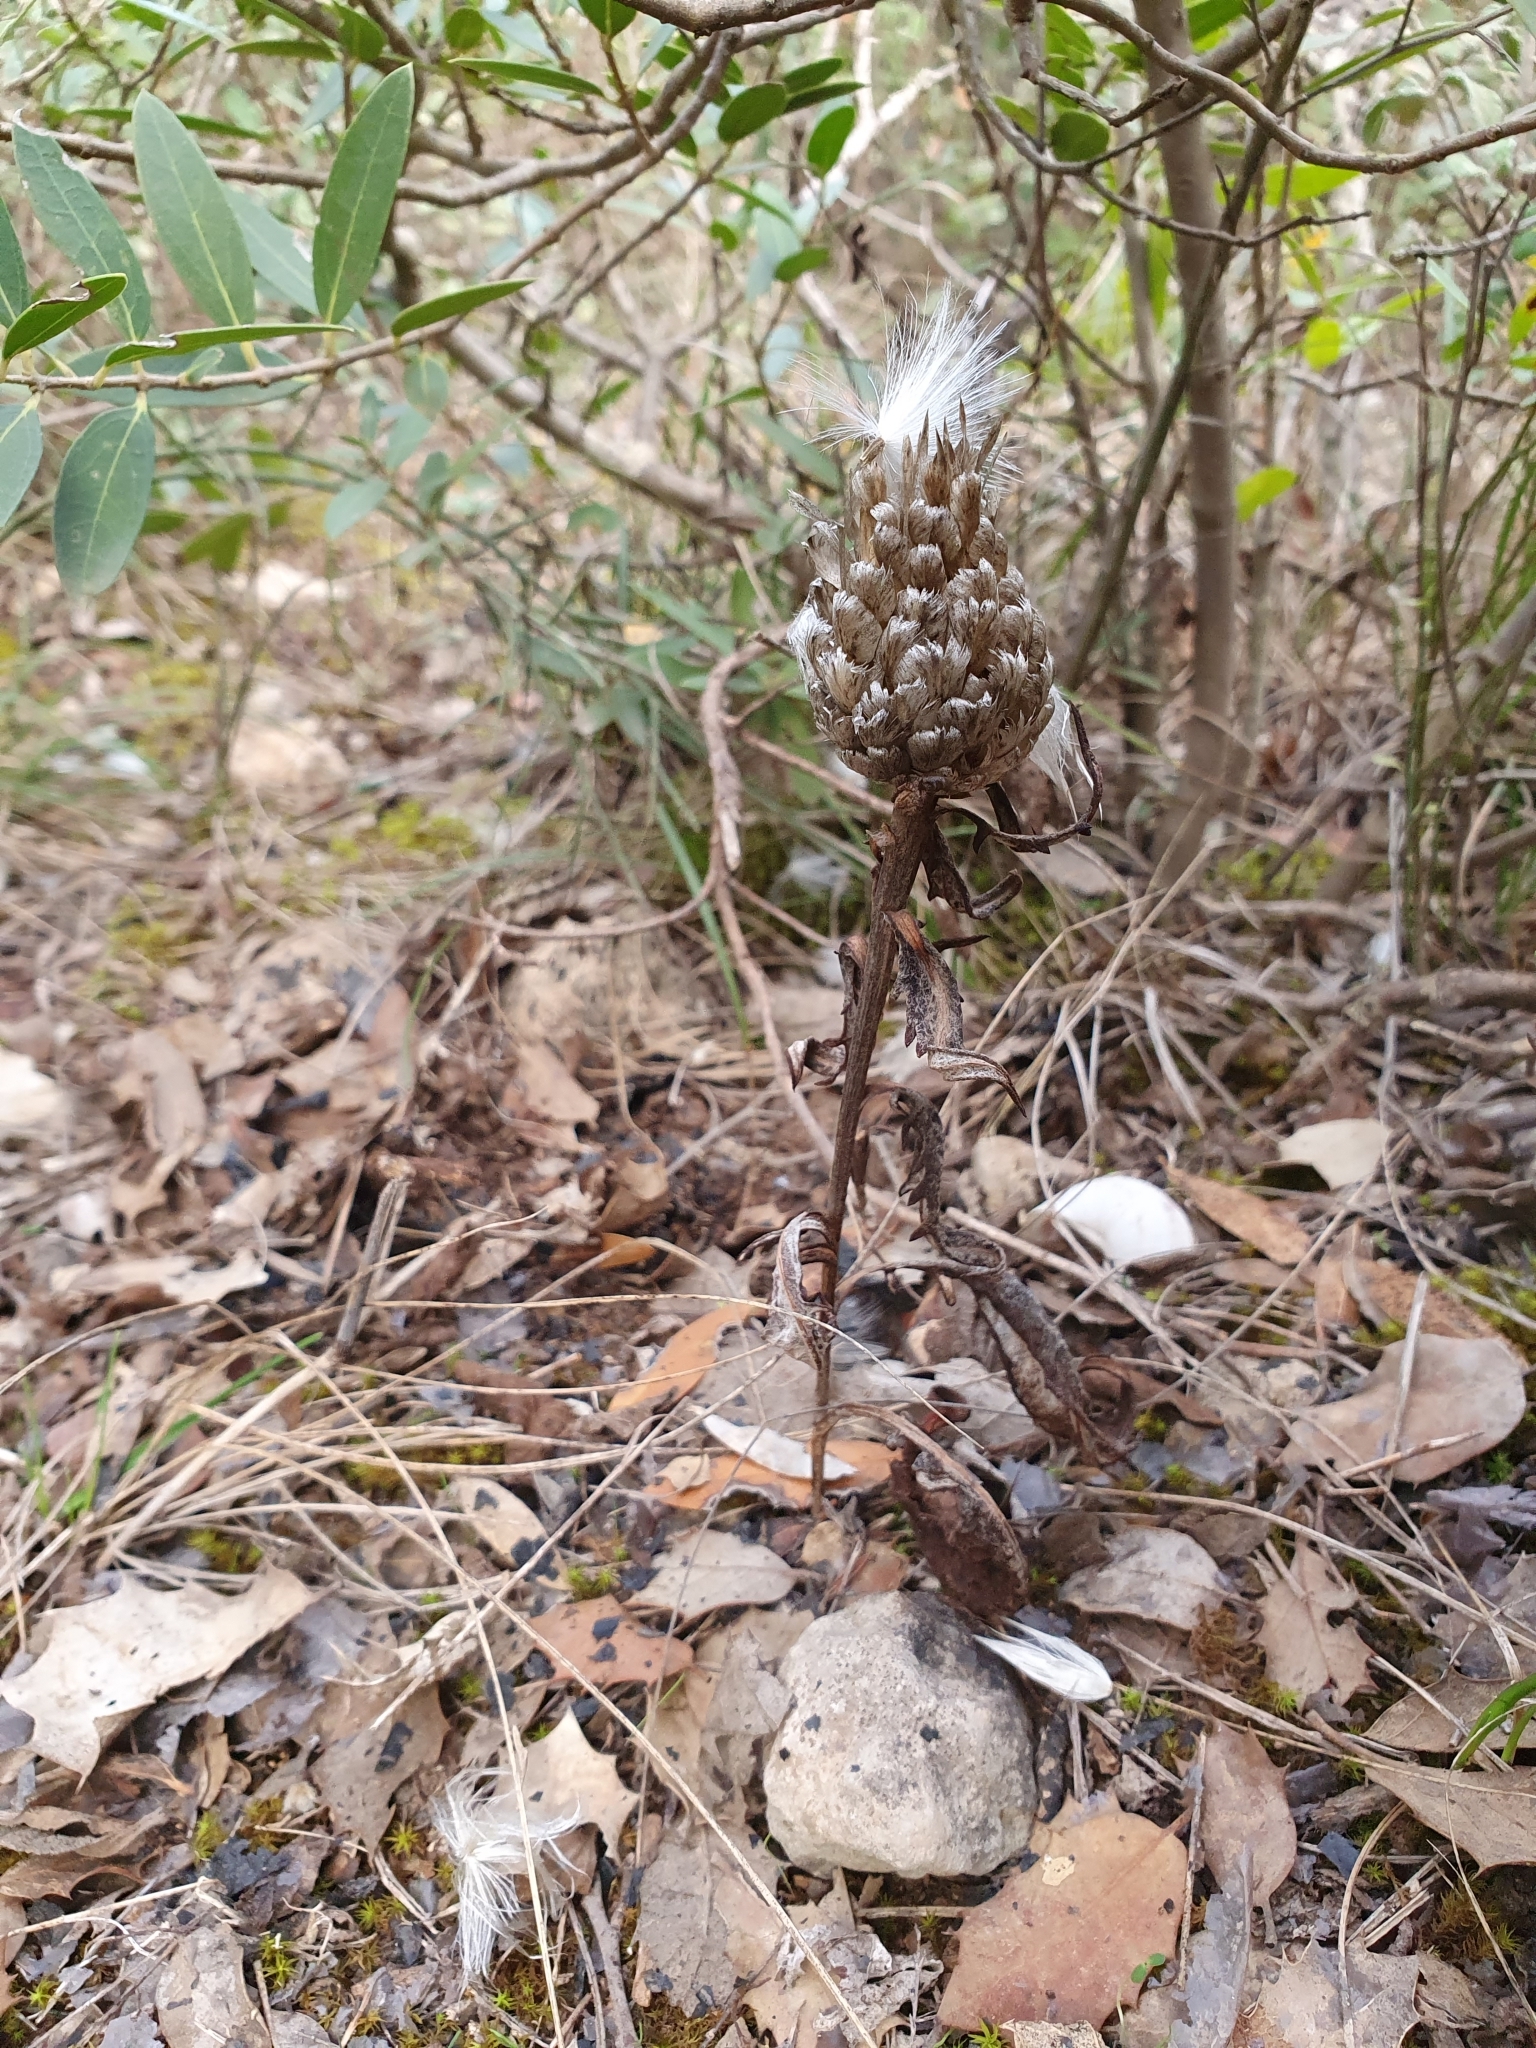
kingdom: Plantae
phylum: Tracheophyta
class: Magnoliopsida
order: Asterales
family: Asteraceae
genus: Leuzea
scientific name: Leuzea conifera
